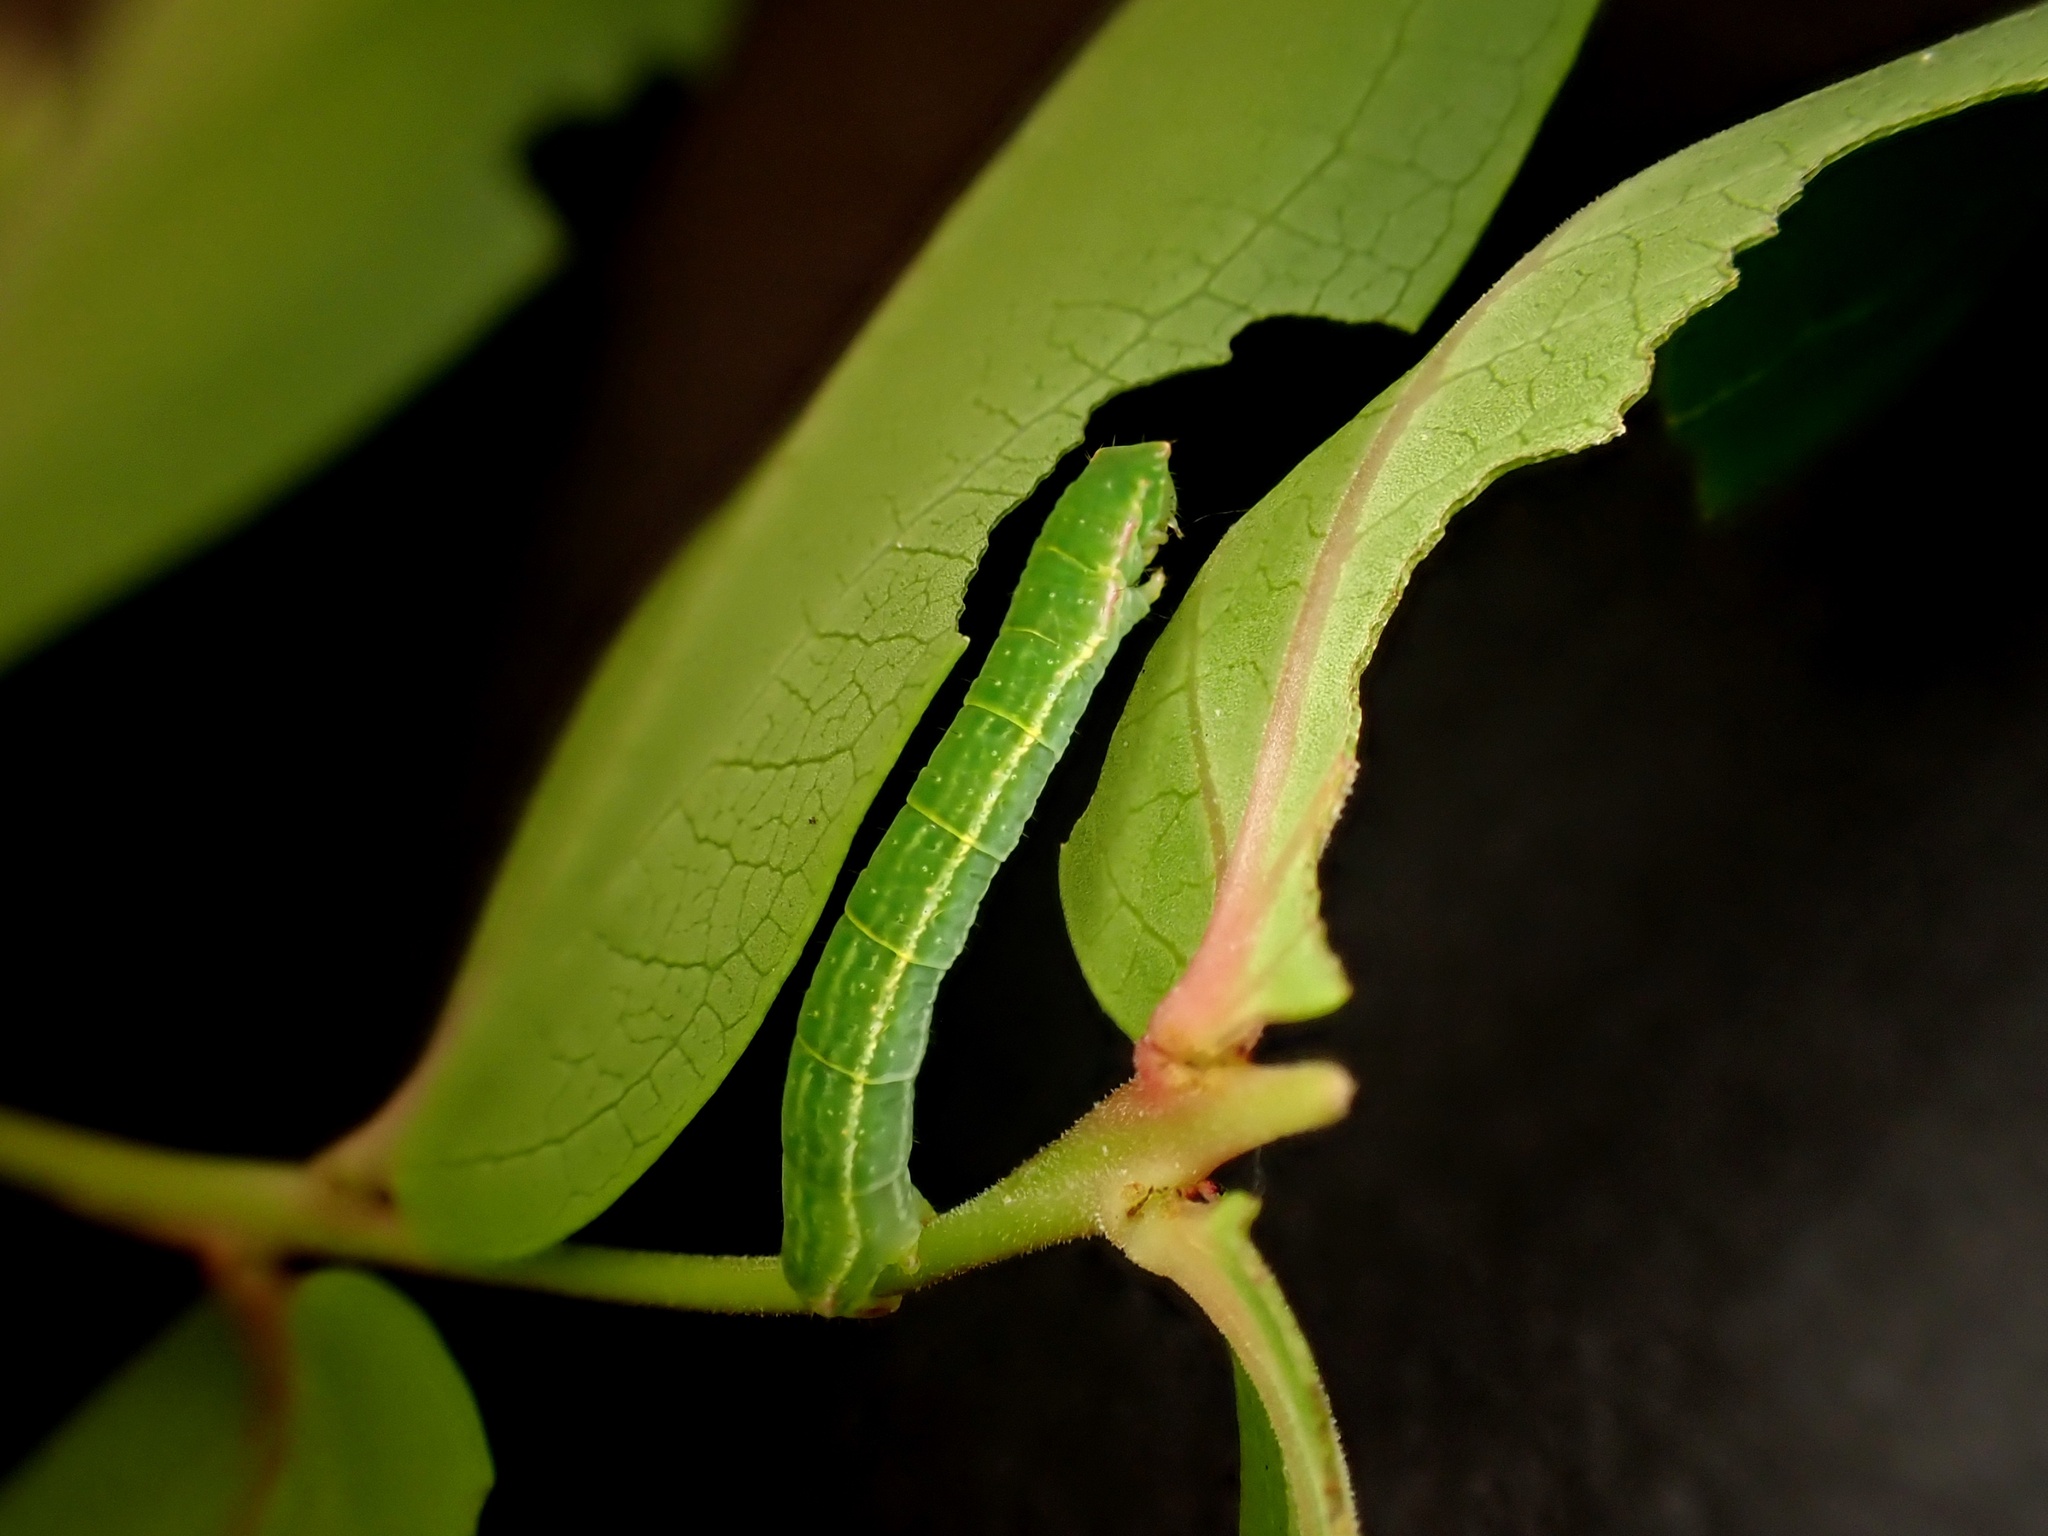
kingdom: Animalia
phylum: Arthropoda
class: Insecta
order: Lepidoptera
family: Geometridae
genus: Tatosoma
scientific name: Tatosoma lestevata
